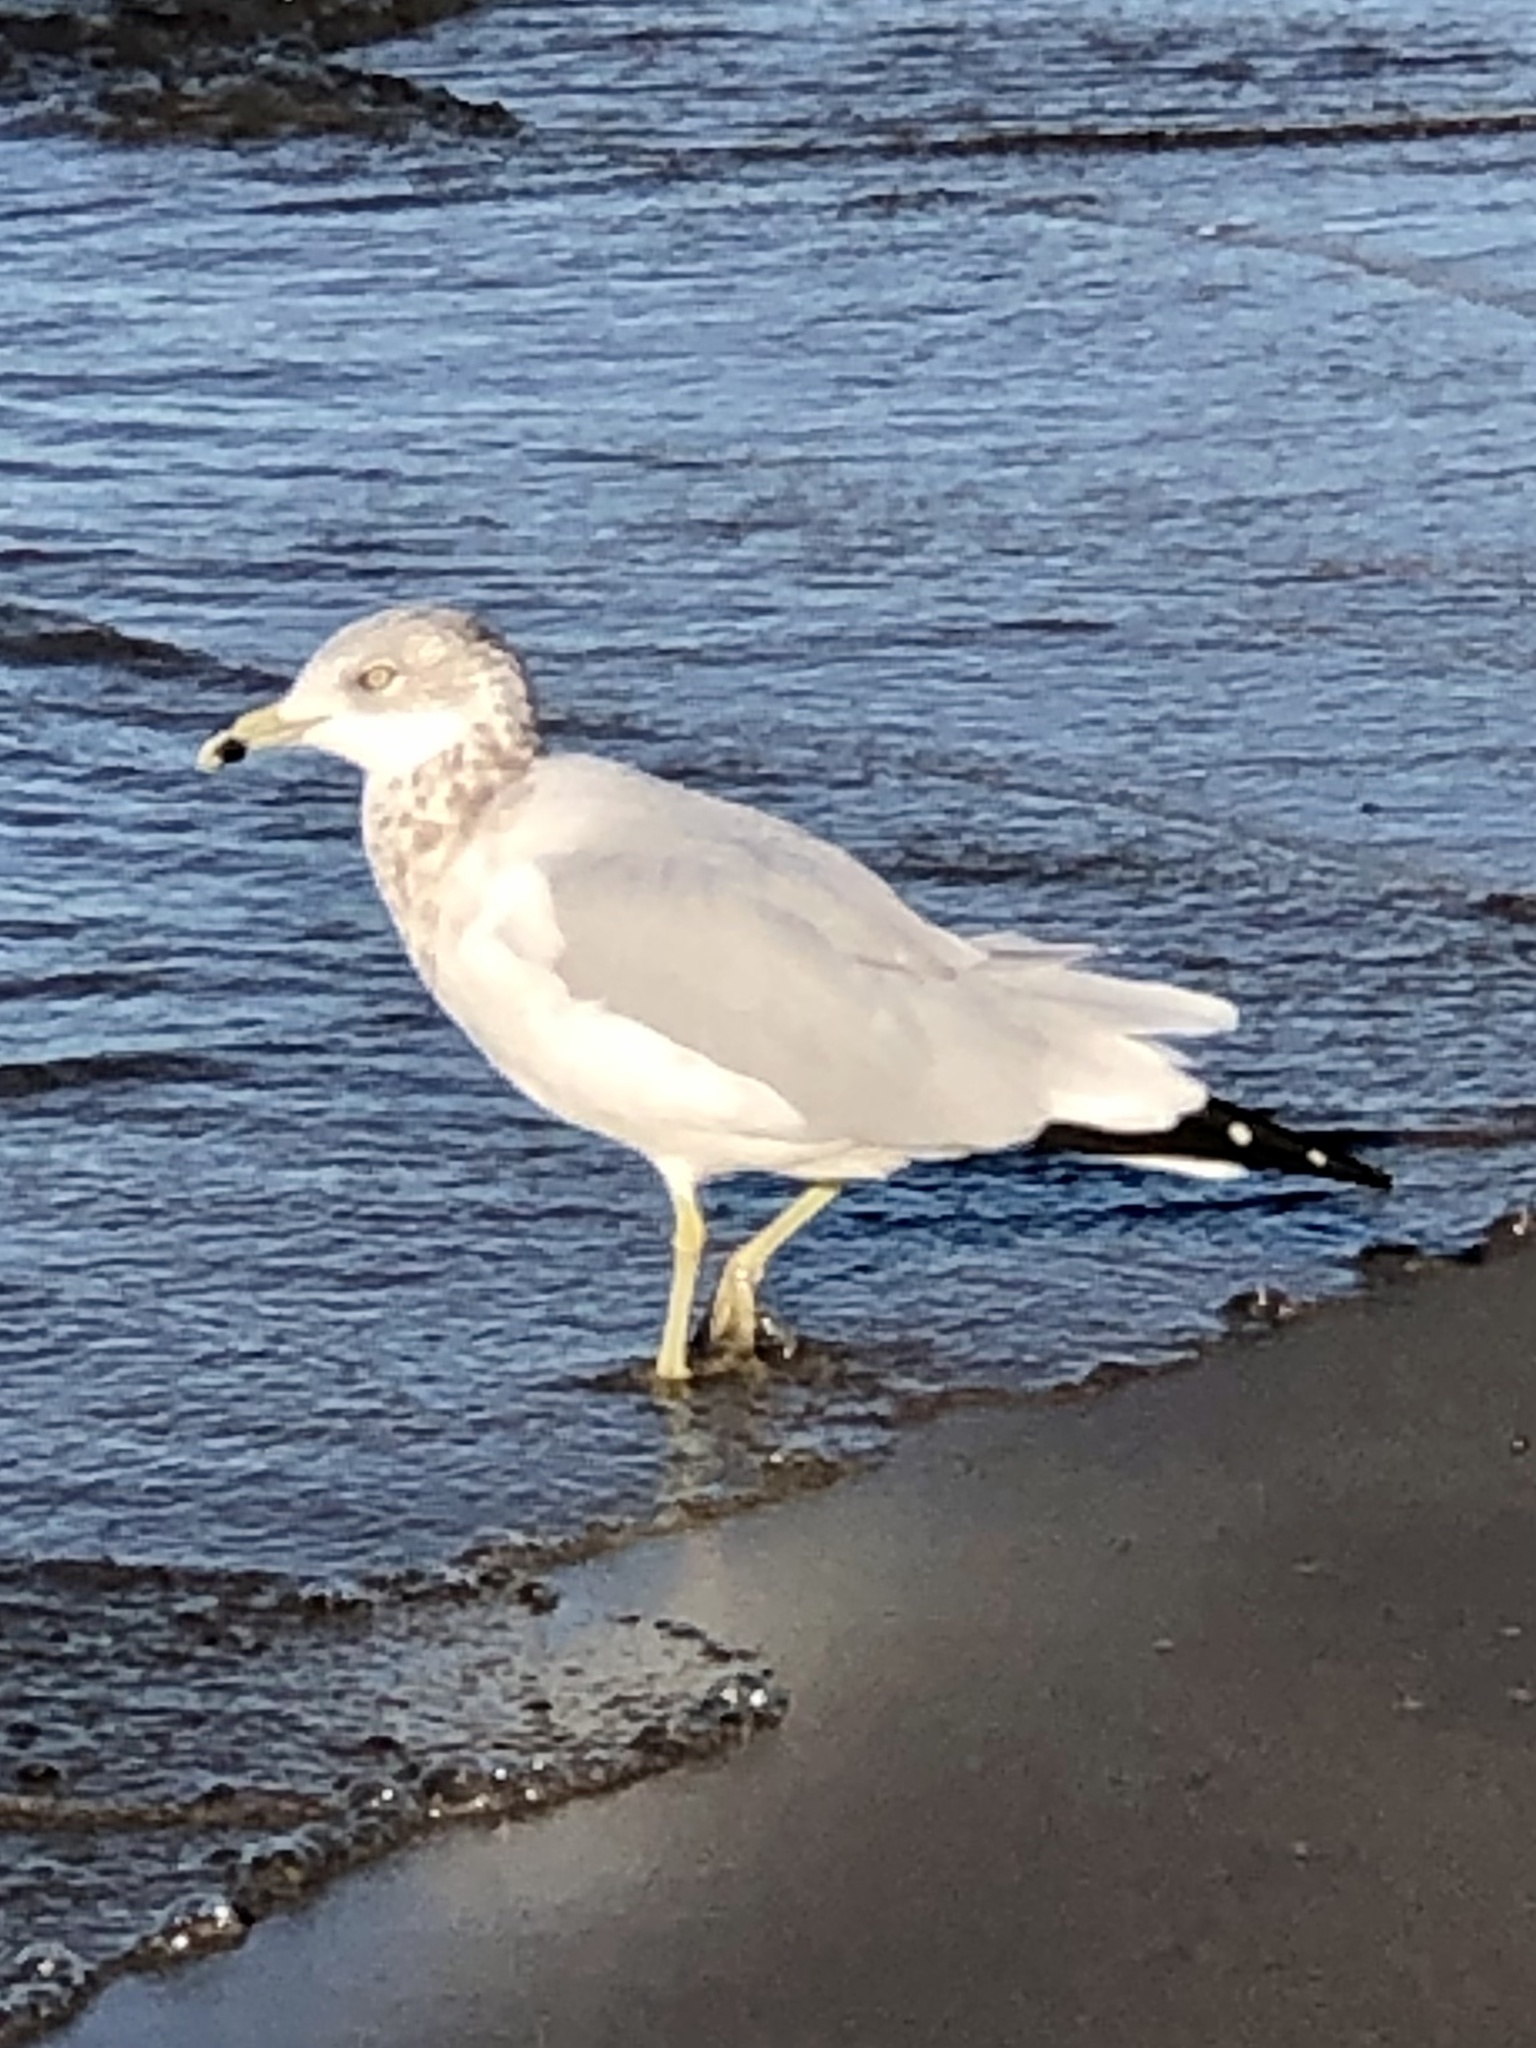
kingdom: Animalia
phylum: Chordata
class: Aves
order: Charadriiformes
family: Laridae
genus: Larus
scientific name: Larus delawarensis
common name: Ring-billed gull
